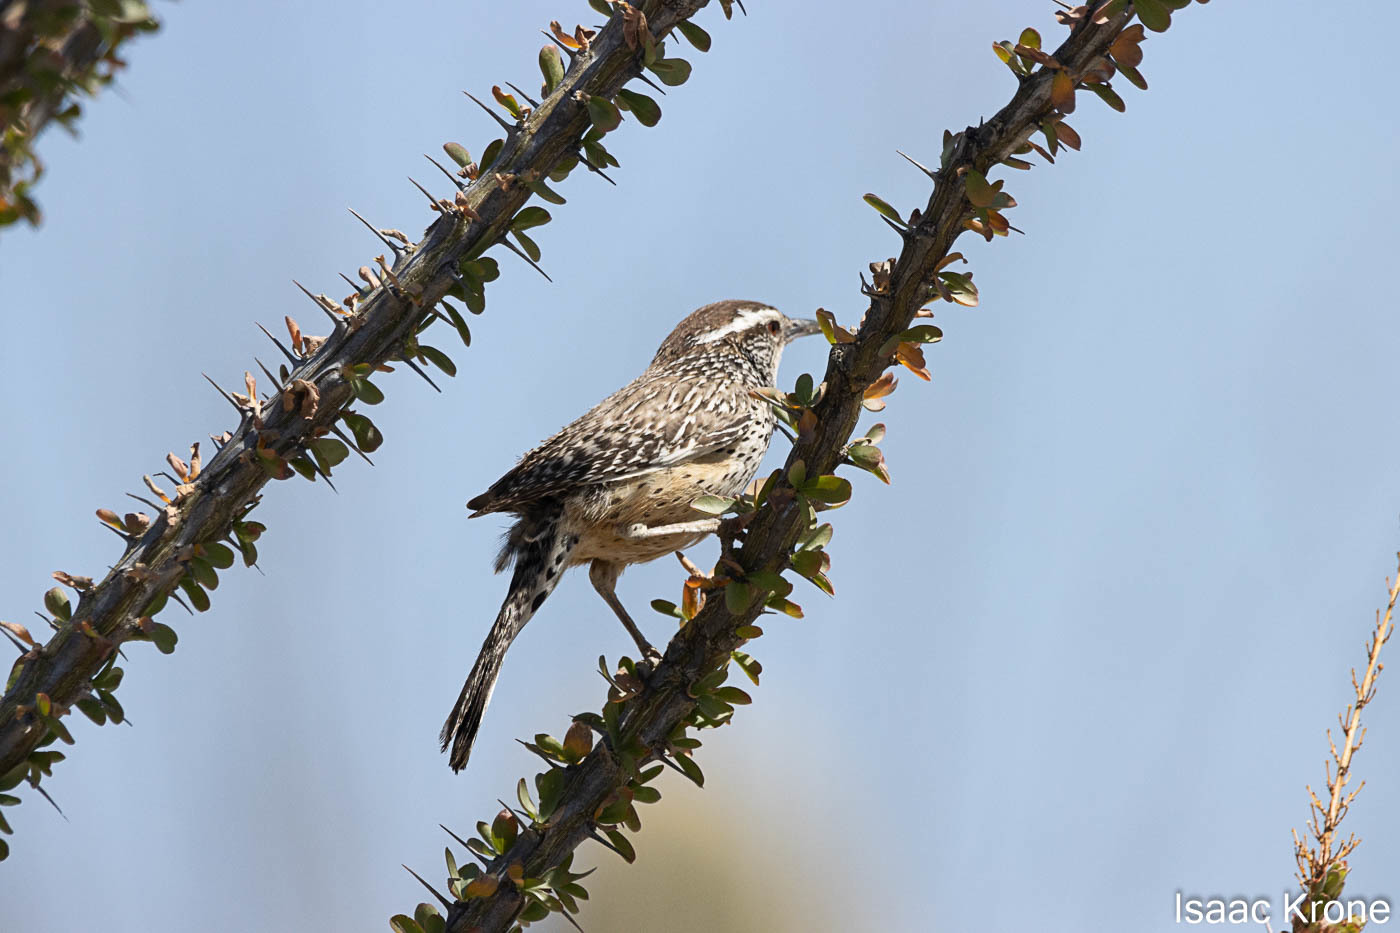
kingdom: Animalia
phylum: Chordata
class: Aves
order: Passeriformes
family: Troglodytidae
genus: Campylorhynchus
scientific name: Campylorhynchus brunneicapillus
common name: Cactus wren
